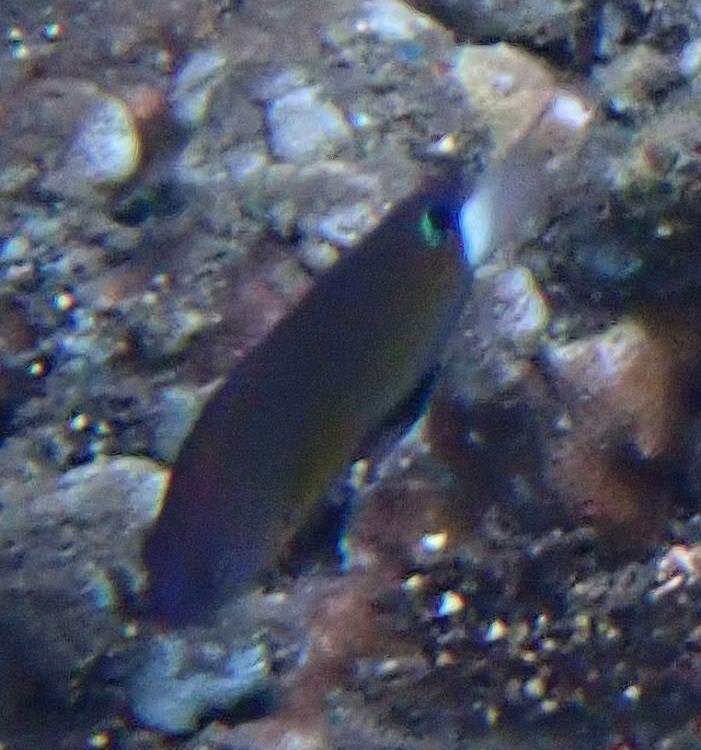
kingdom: Animalia
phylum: Chordata
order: Perciformes
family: Pomacentridae
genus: Pomacentrus
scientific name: Pomacentrus bankanensis
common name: Speckled damsel
